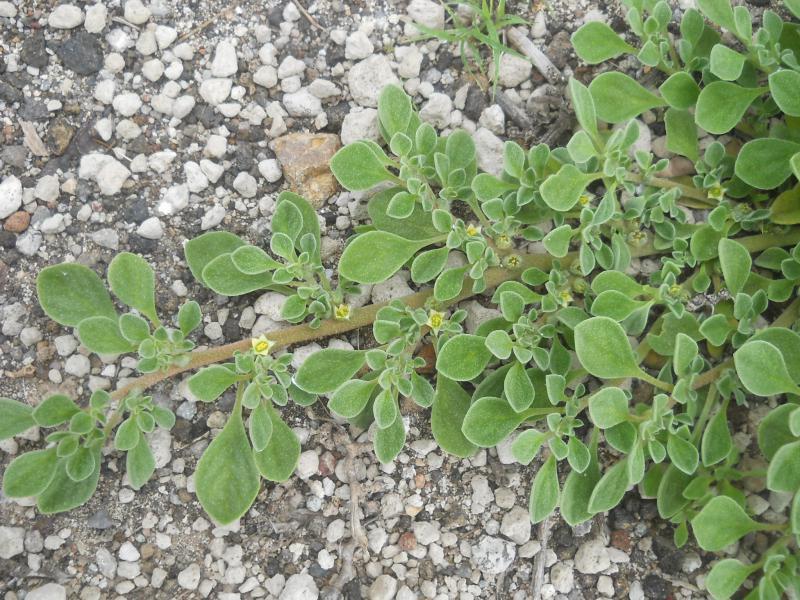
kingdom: Plantae
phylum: Tracheophyta
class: Magnoliopsida
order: Caryophyllales
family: Aizoaceae
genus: Aizoon
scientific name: Aizoon canariense
